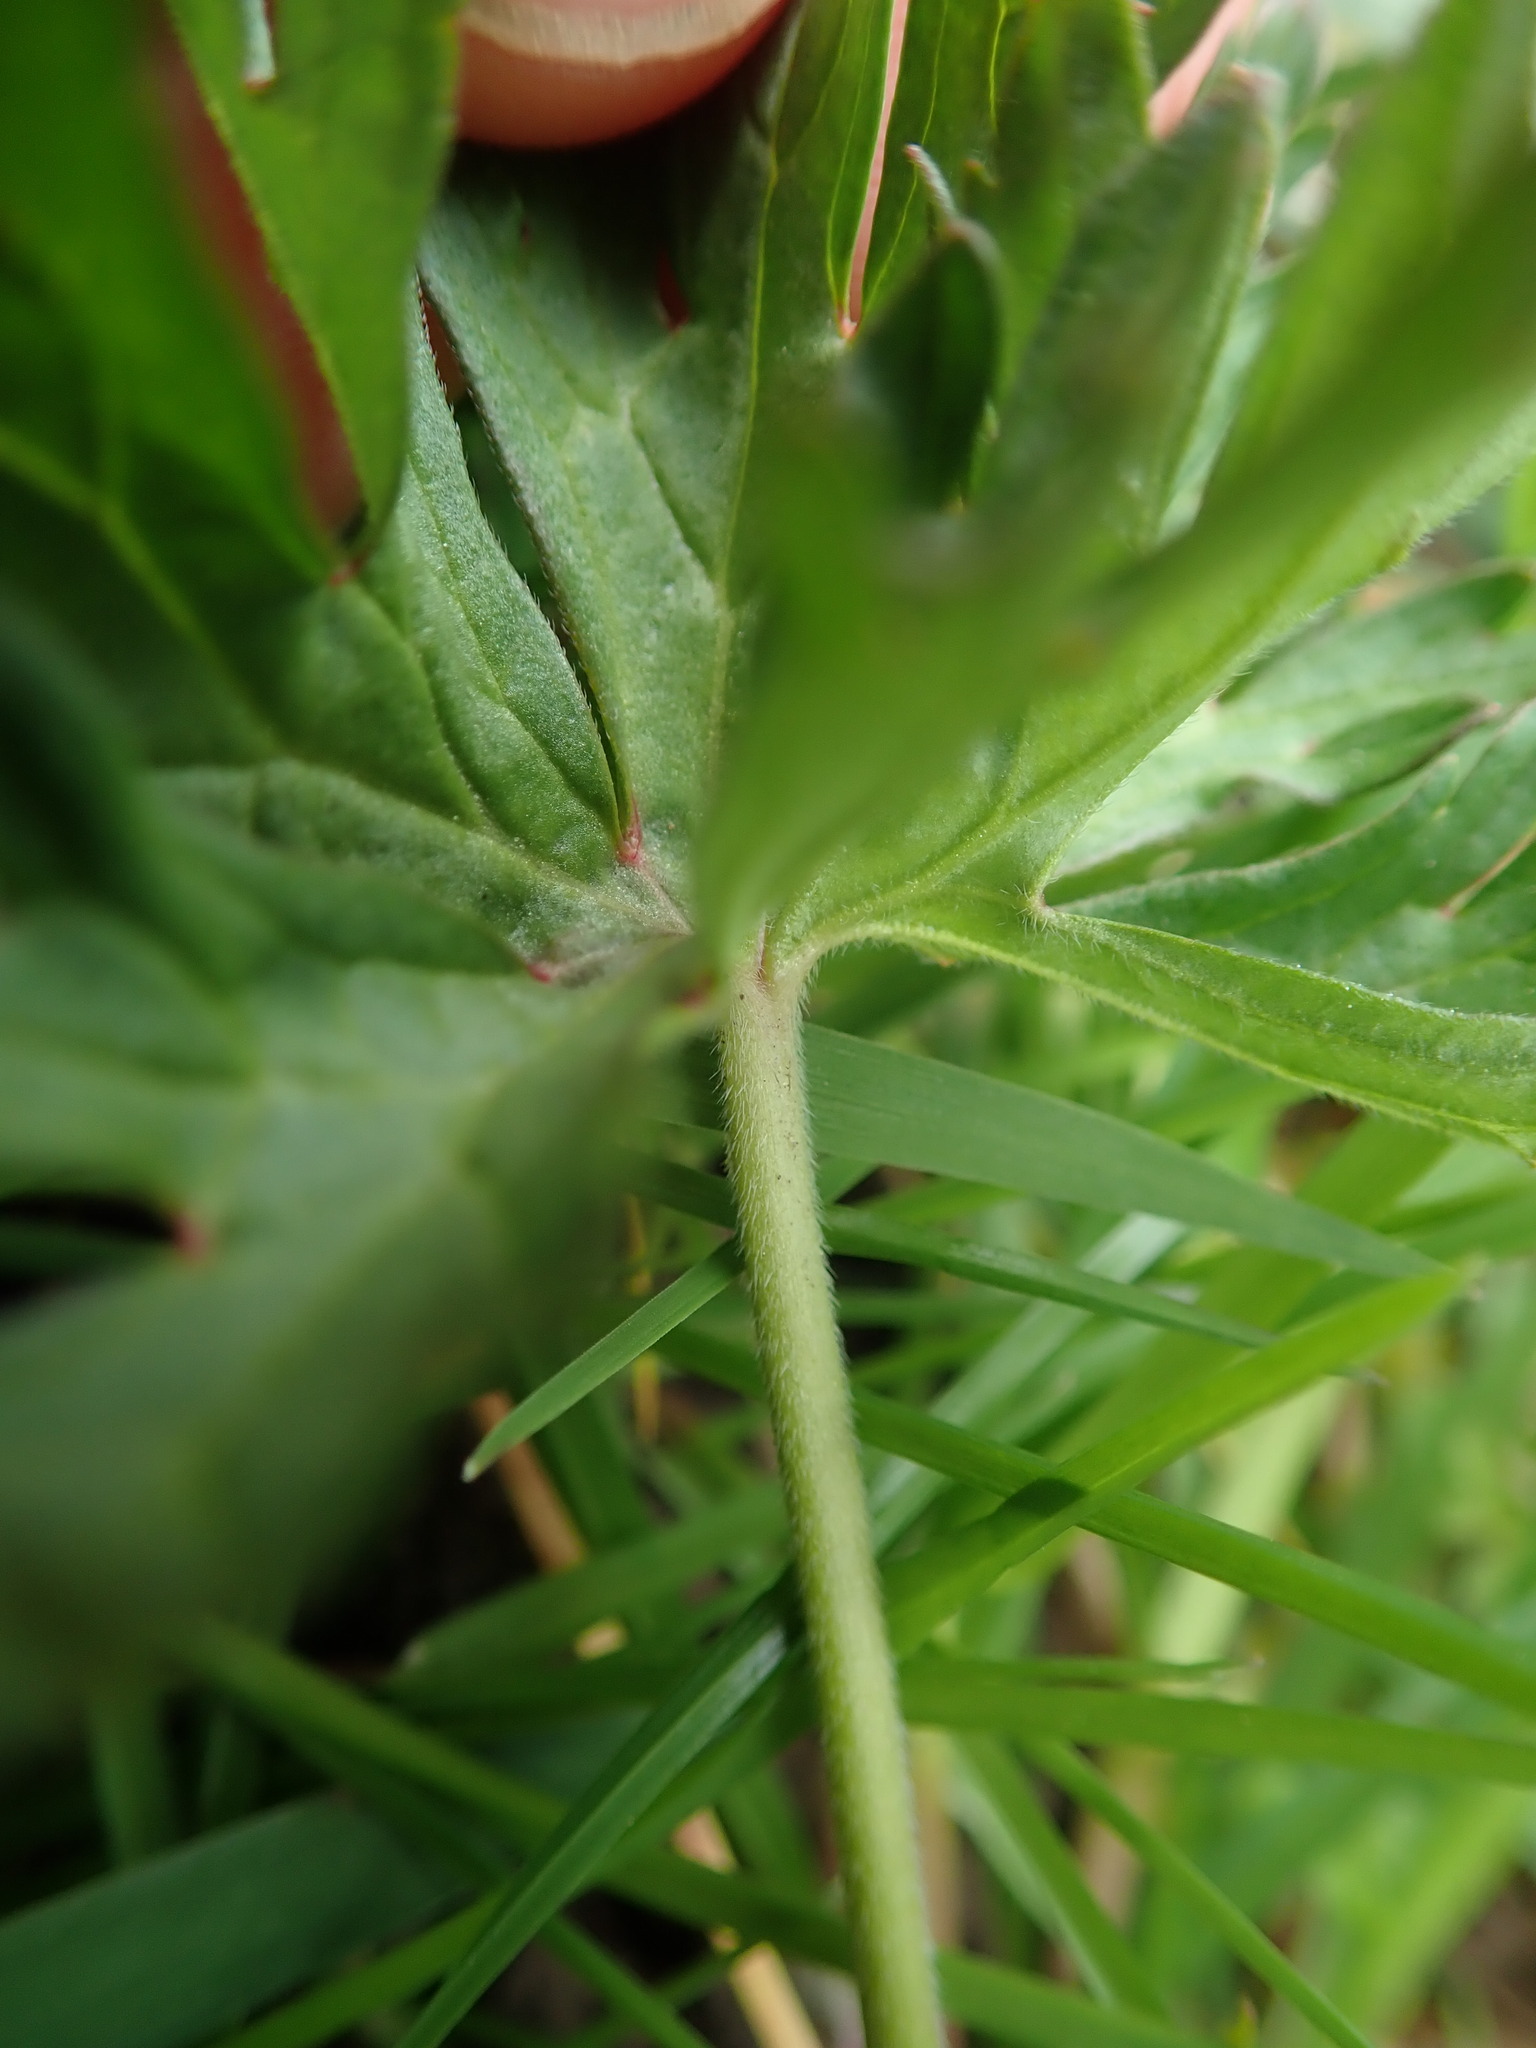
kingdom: Plantae
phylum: Tracheophyta
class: Magnoliopsida
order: Geraniales
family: Geraniaceae
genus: Geranium
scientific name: Geranium dissectum
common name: Cut-leaved crane's-bill
